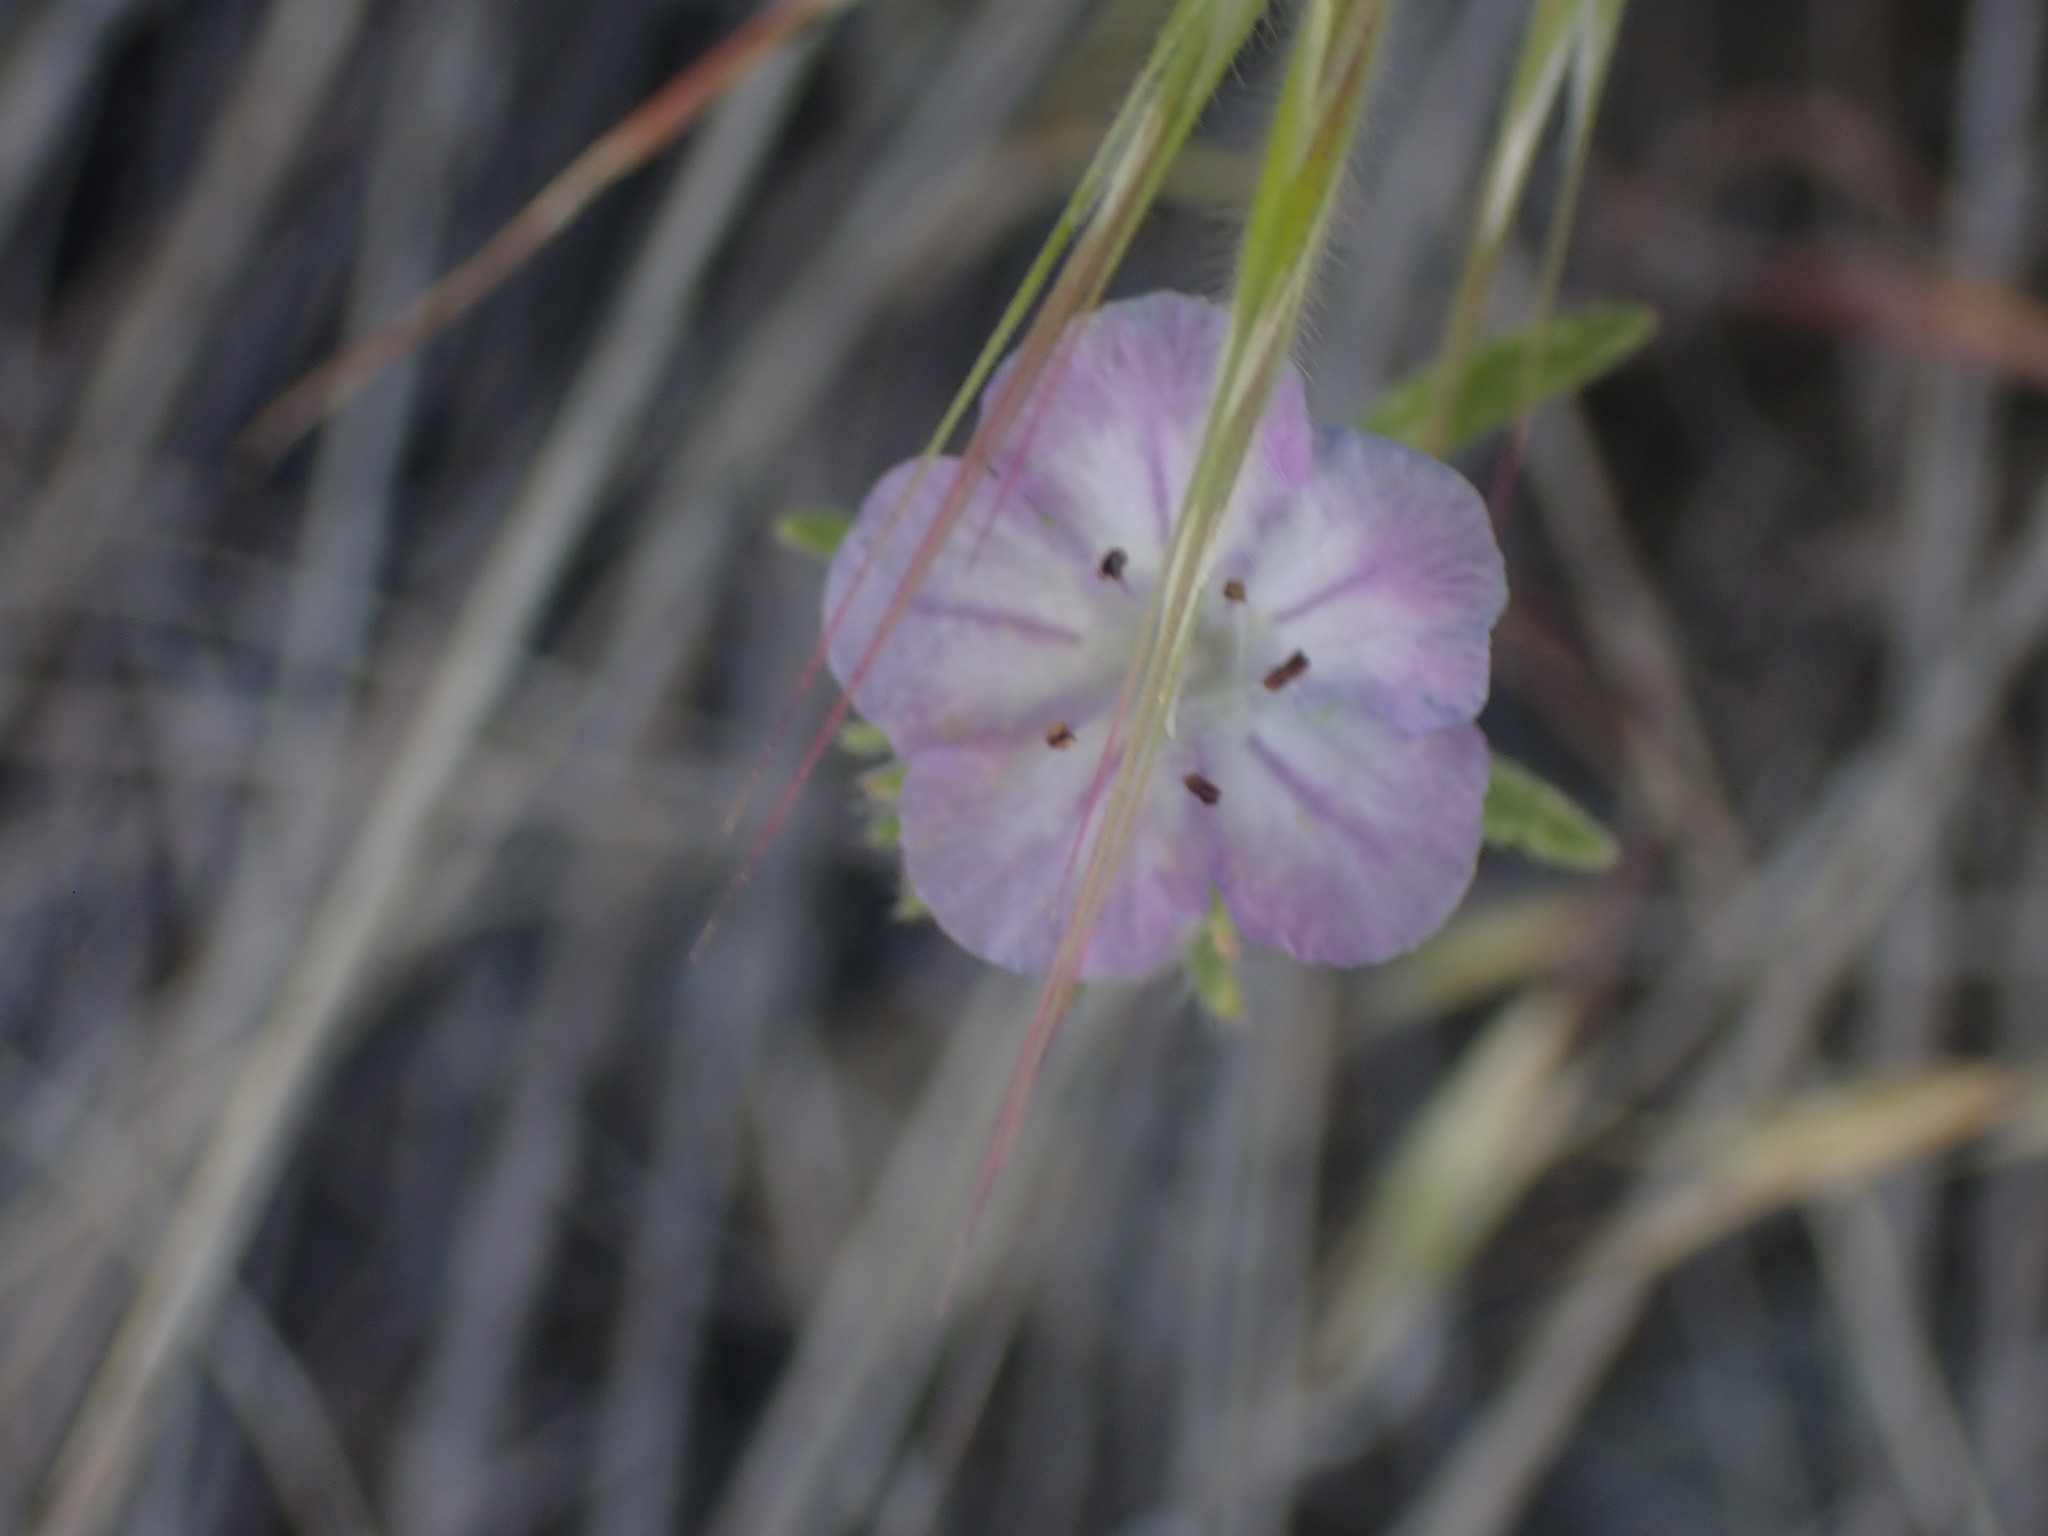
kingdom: Plantae
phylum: Tracheophyta
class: Magnoliopsida
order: Boraginales
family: Hydrophyllaceae
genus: Phacelia
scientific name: Phacelia linearis
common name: Linear-leaved phacelia
